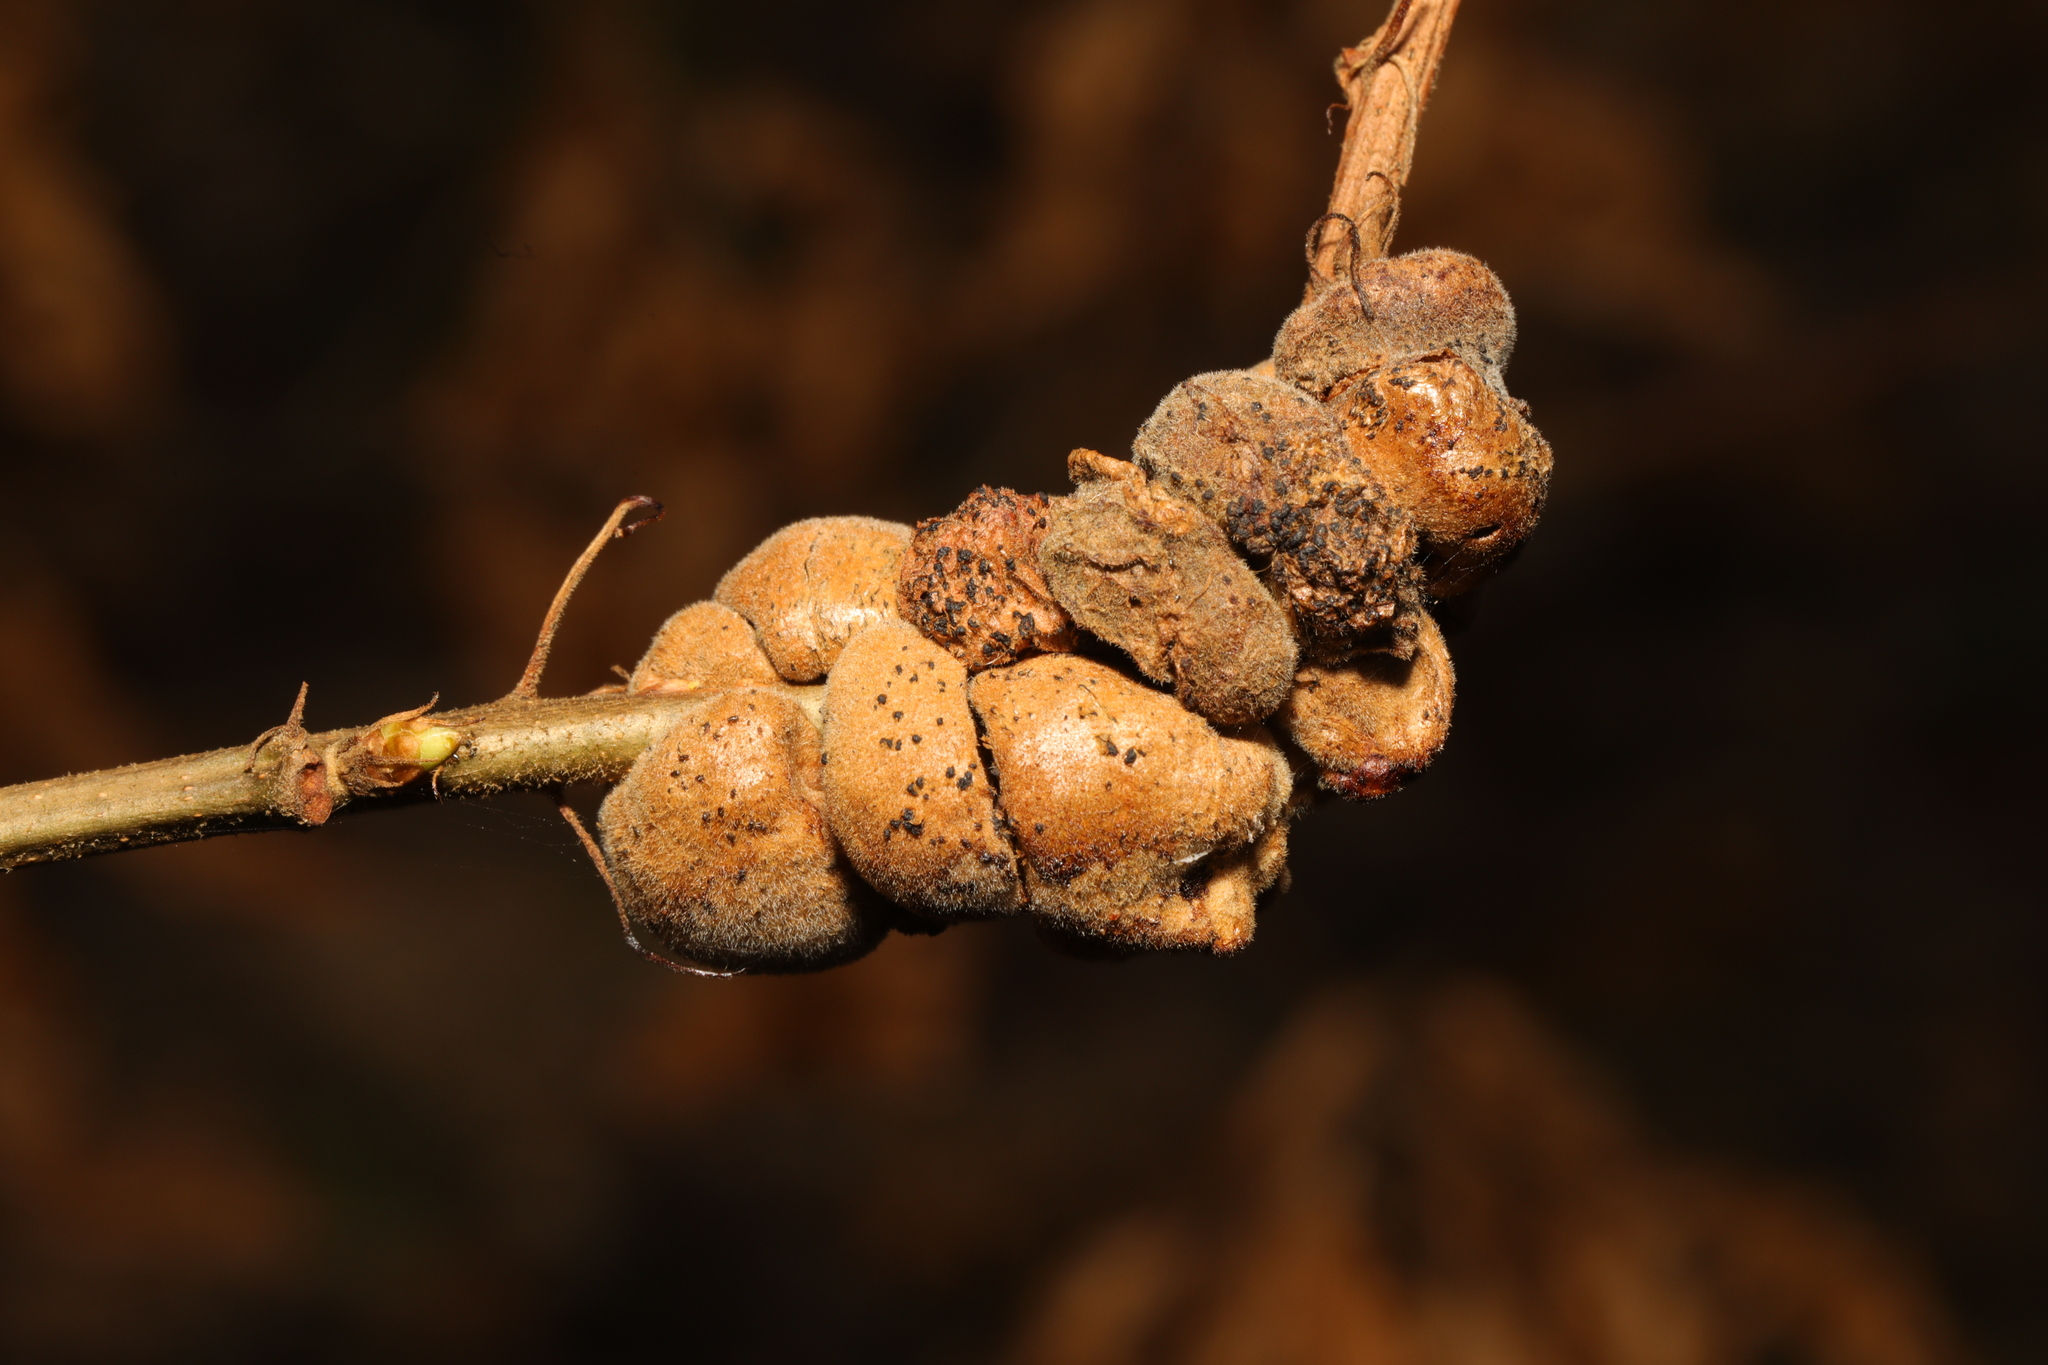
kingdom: Animalia
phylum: Arthropoda
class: Insecta
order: Hymenoptera
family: Cynipidae
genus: Aphelonyx
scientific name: Aphelonyx cerricola
